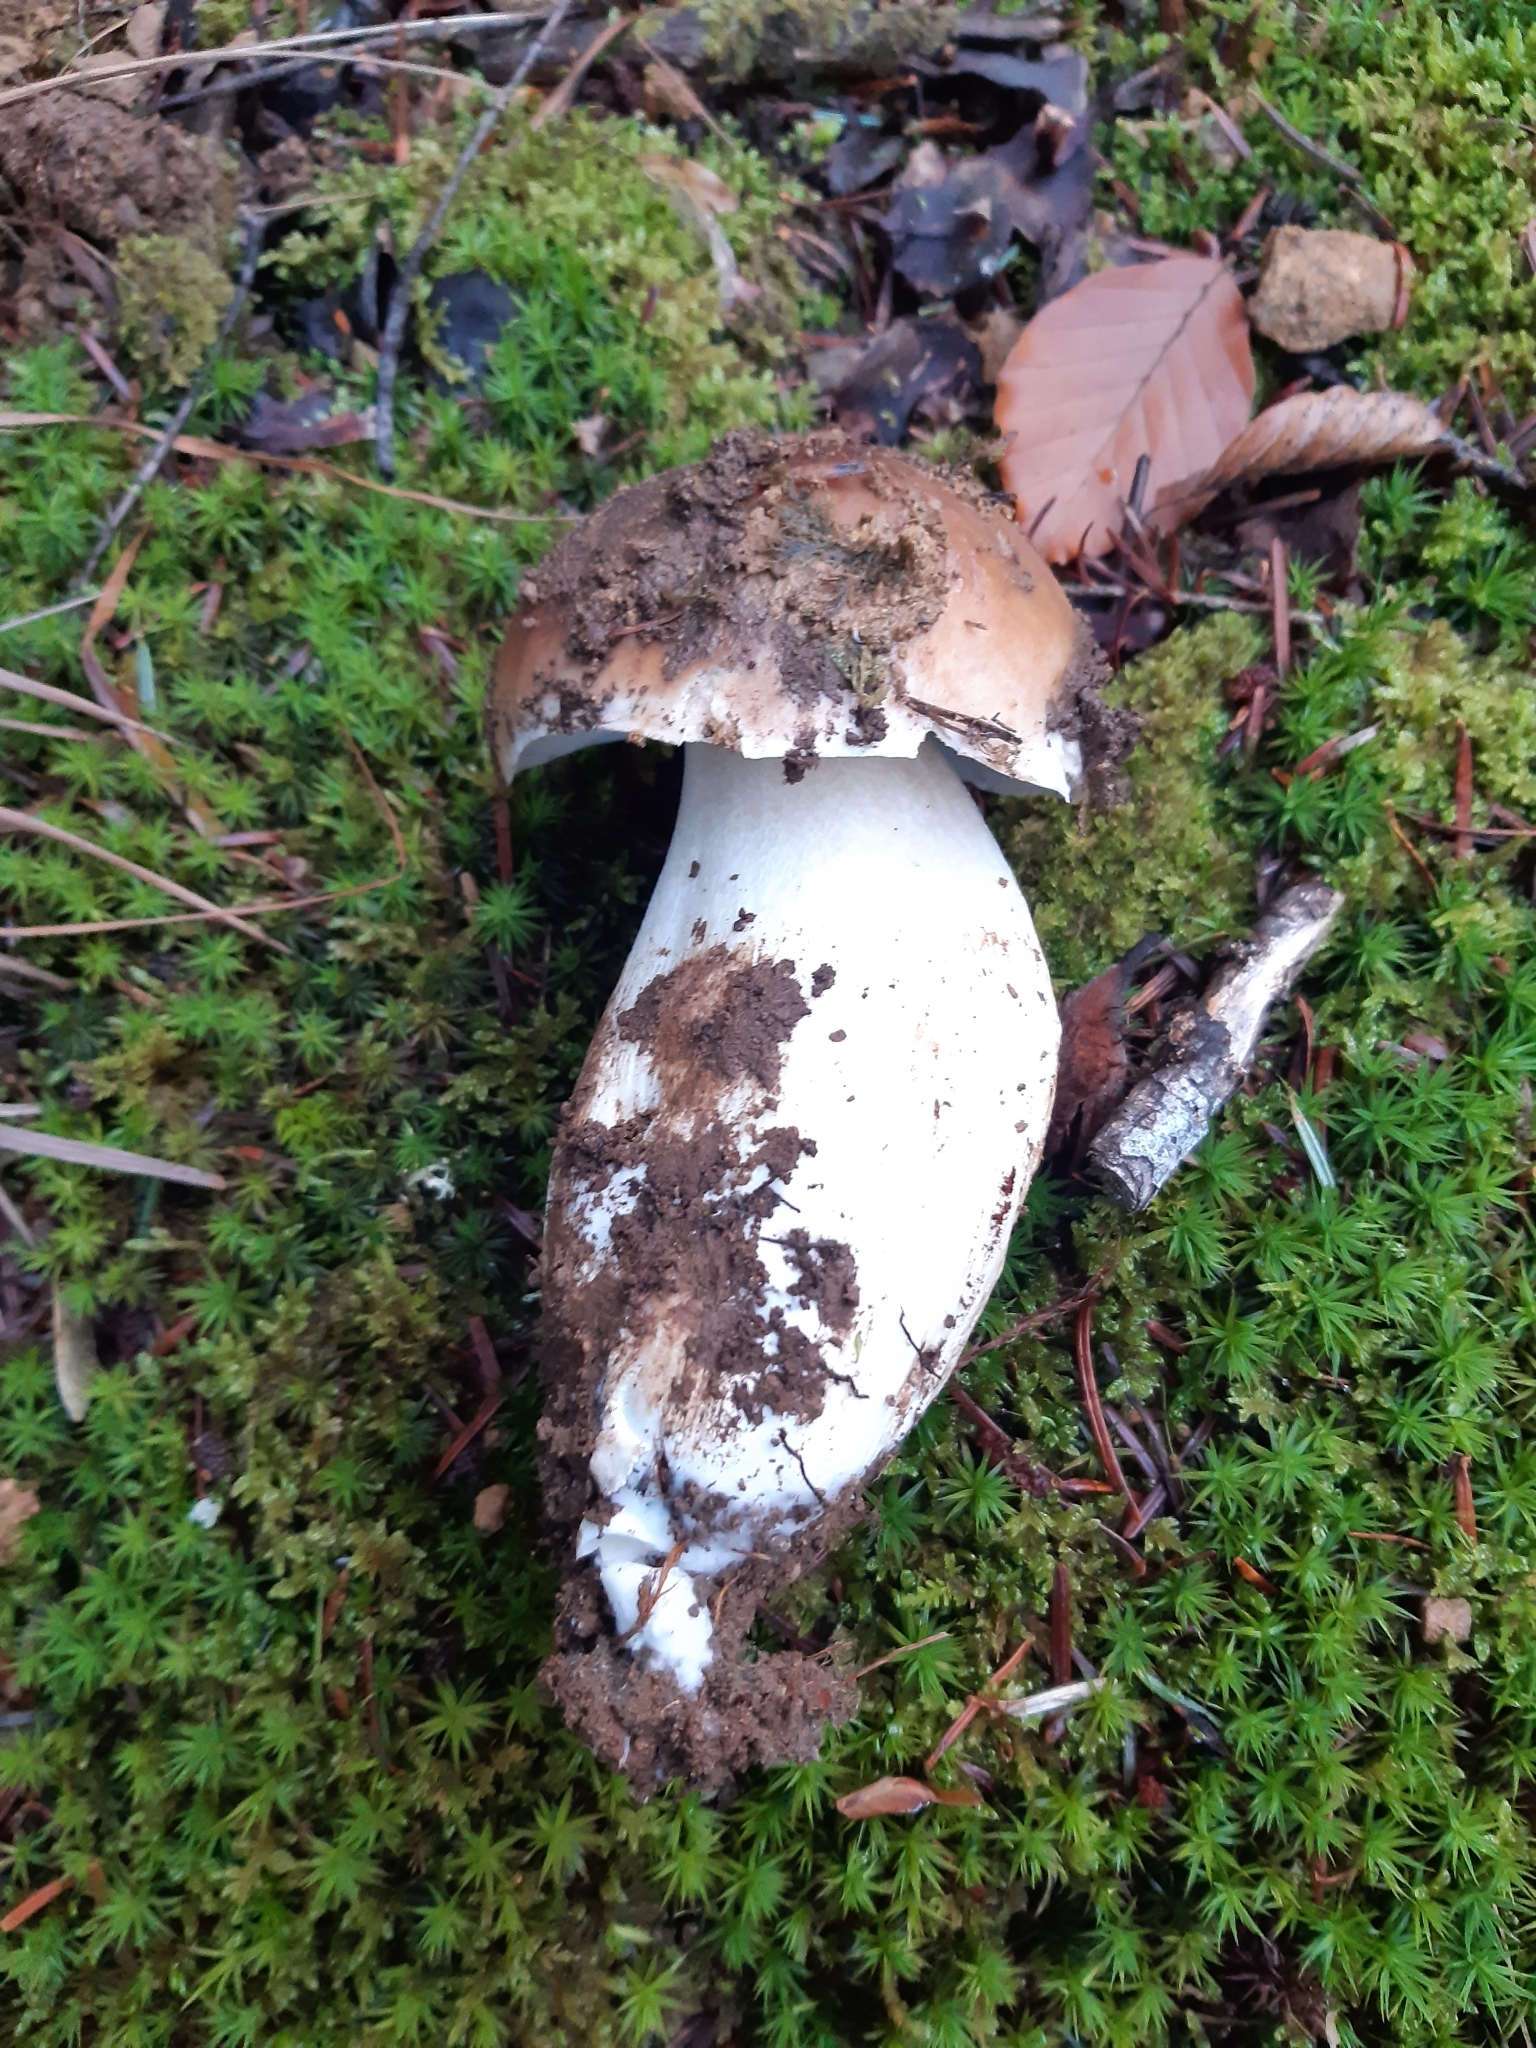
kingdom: Fungi
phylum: Basidiomycota
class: Agaricomycetes
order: Boletales
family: Boletaceae
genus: Boletus
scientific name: Boletus edulis
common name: Cep
